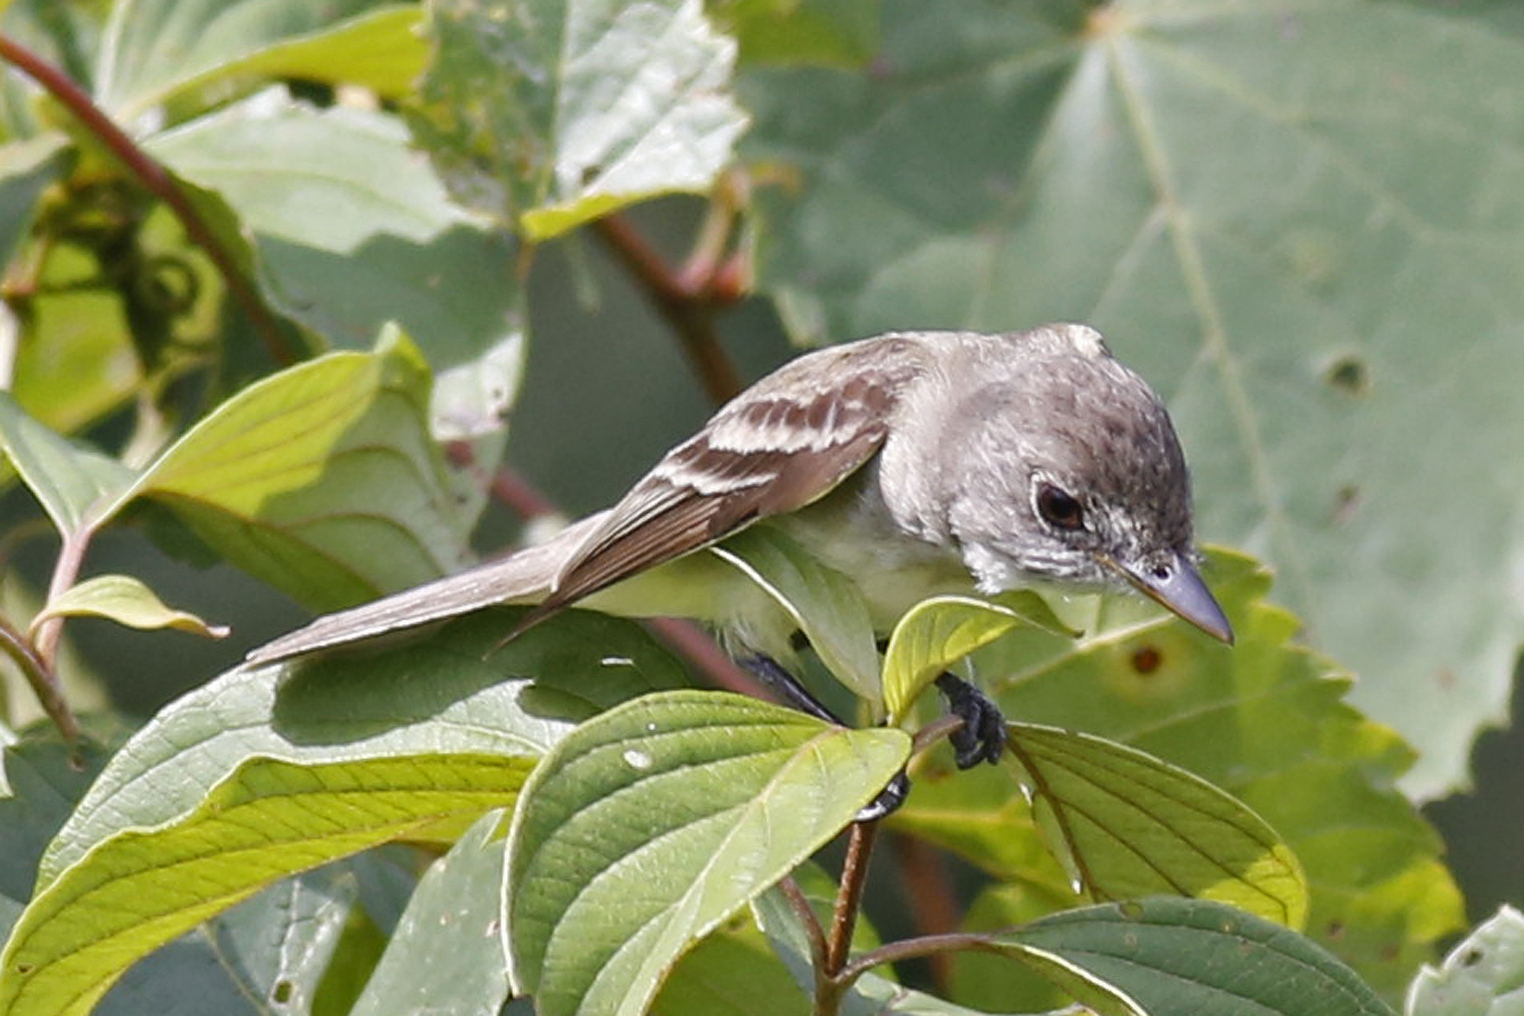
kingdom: Animalia
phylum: Chordata
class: Aves
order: Passeriformes
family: Tyrannidae
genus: Empidonax
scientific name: Empidonax traillii
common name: Willow flycatcher
